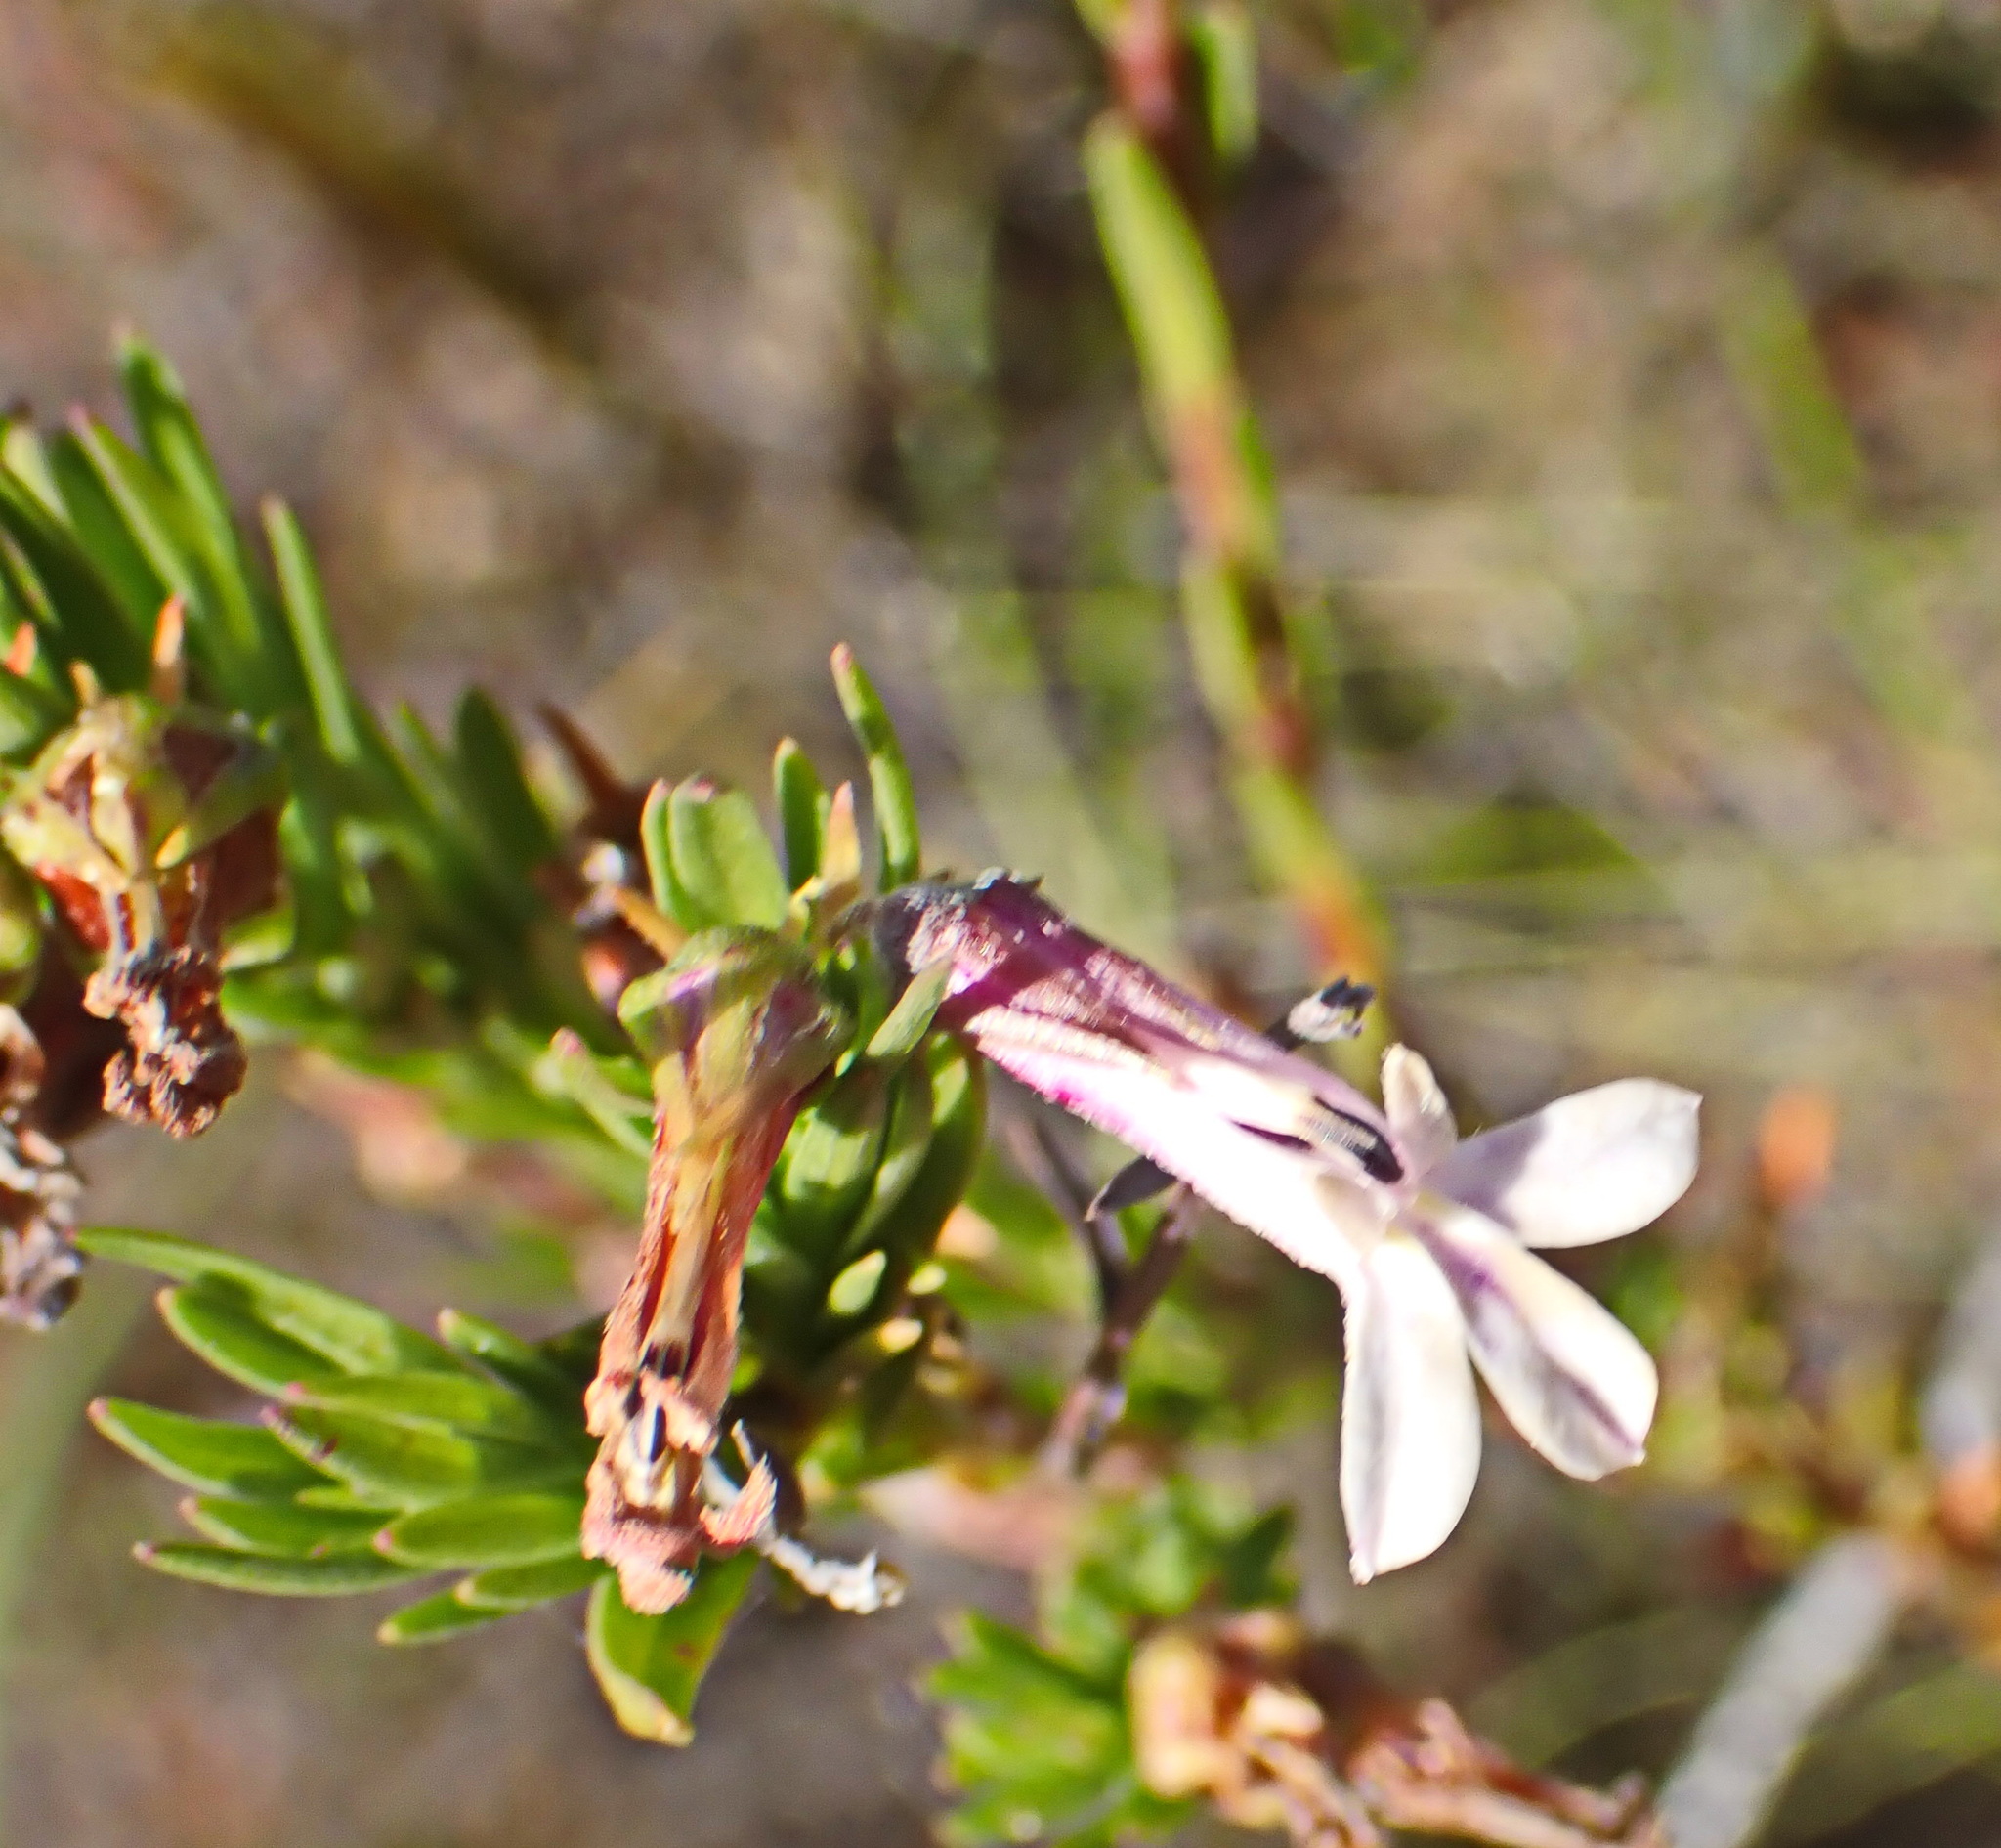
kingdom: Plantae
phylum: Tracheophyta
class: Magnoliopsida
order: Asterales
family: Campanulaceae
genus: Lobelia
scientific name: Lobelia pinifolia
